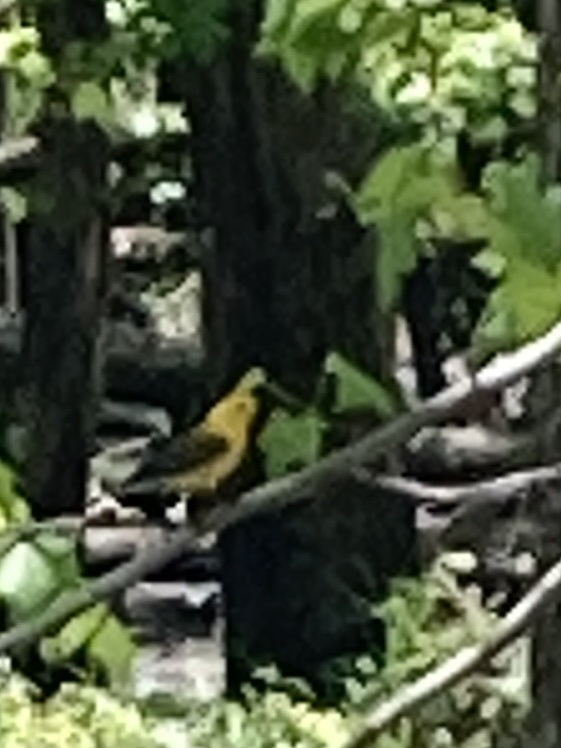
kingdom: Animalia
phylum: Chordata
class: Aves
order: Passeriformes
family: Parulidae
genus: Protonotaria
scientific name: Protonotaria citrea
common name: Prothonotary warbler
